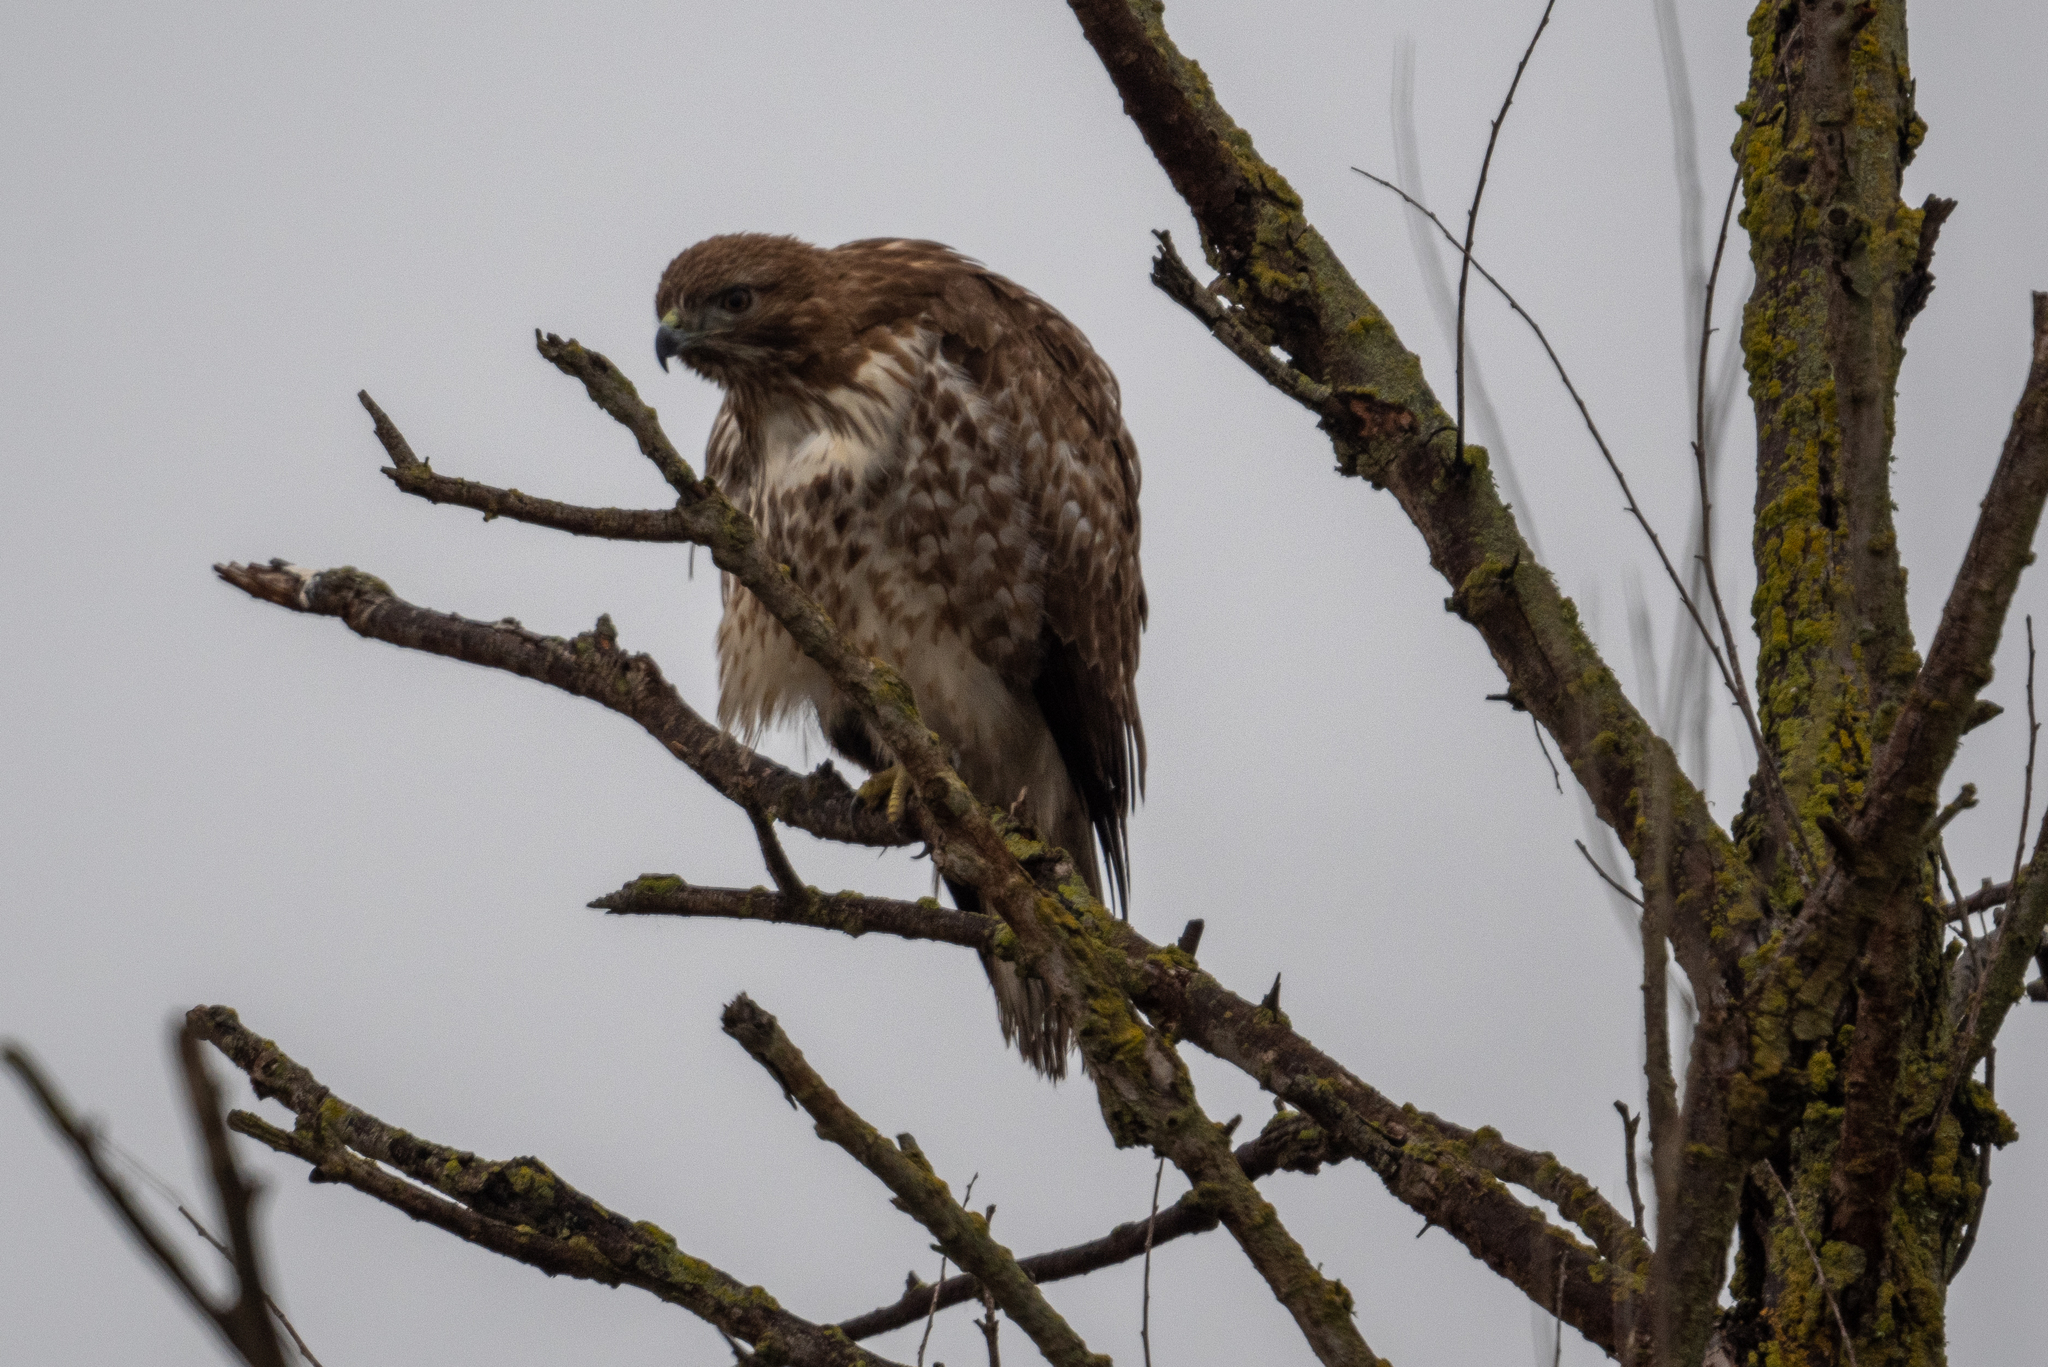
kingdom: Animalia
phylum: Chordata
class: Aves
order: Accipitriformes
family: Accipitridae
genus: Buteo
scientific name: Buteo jamaicensis
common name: Red-tailed hawk
